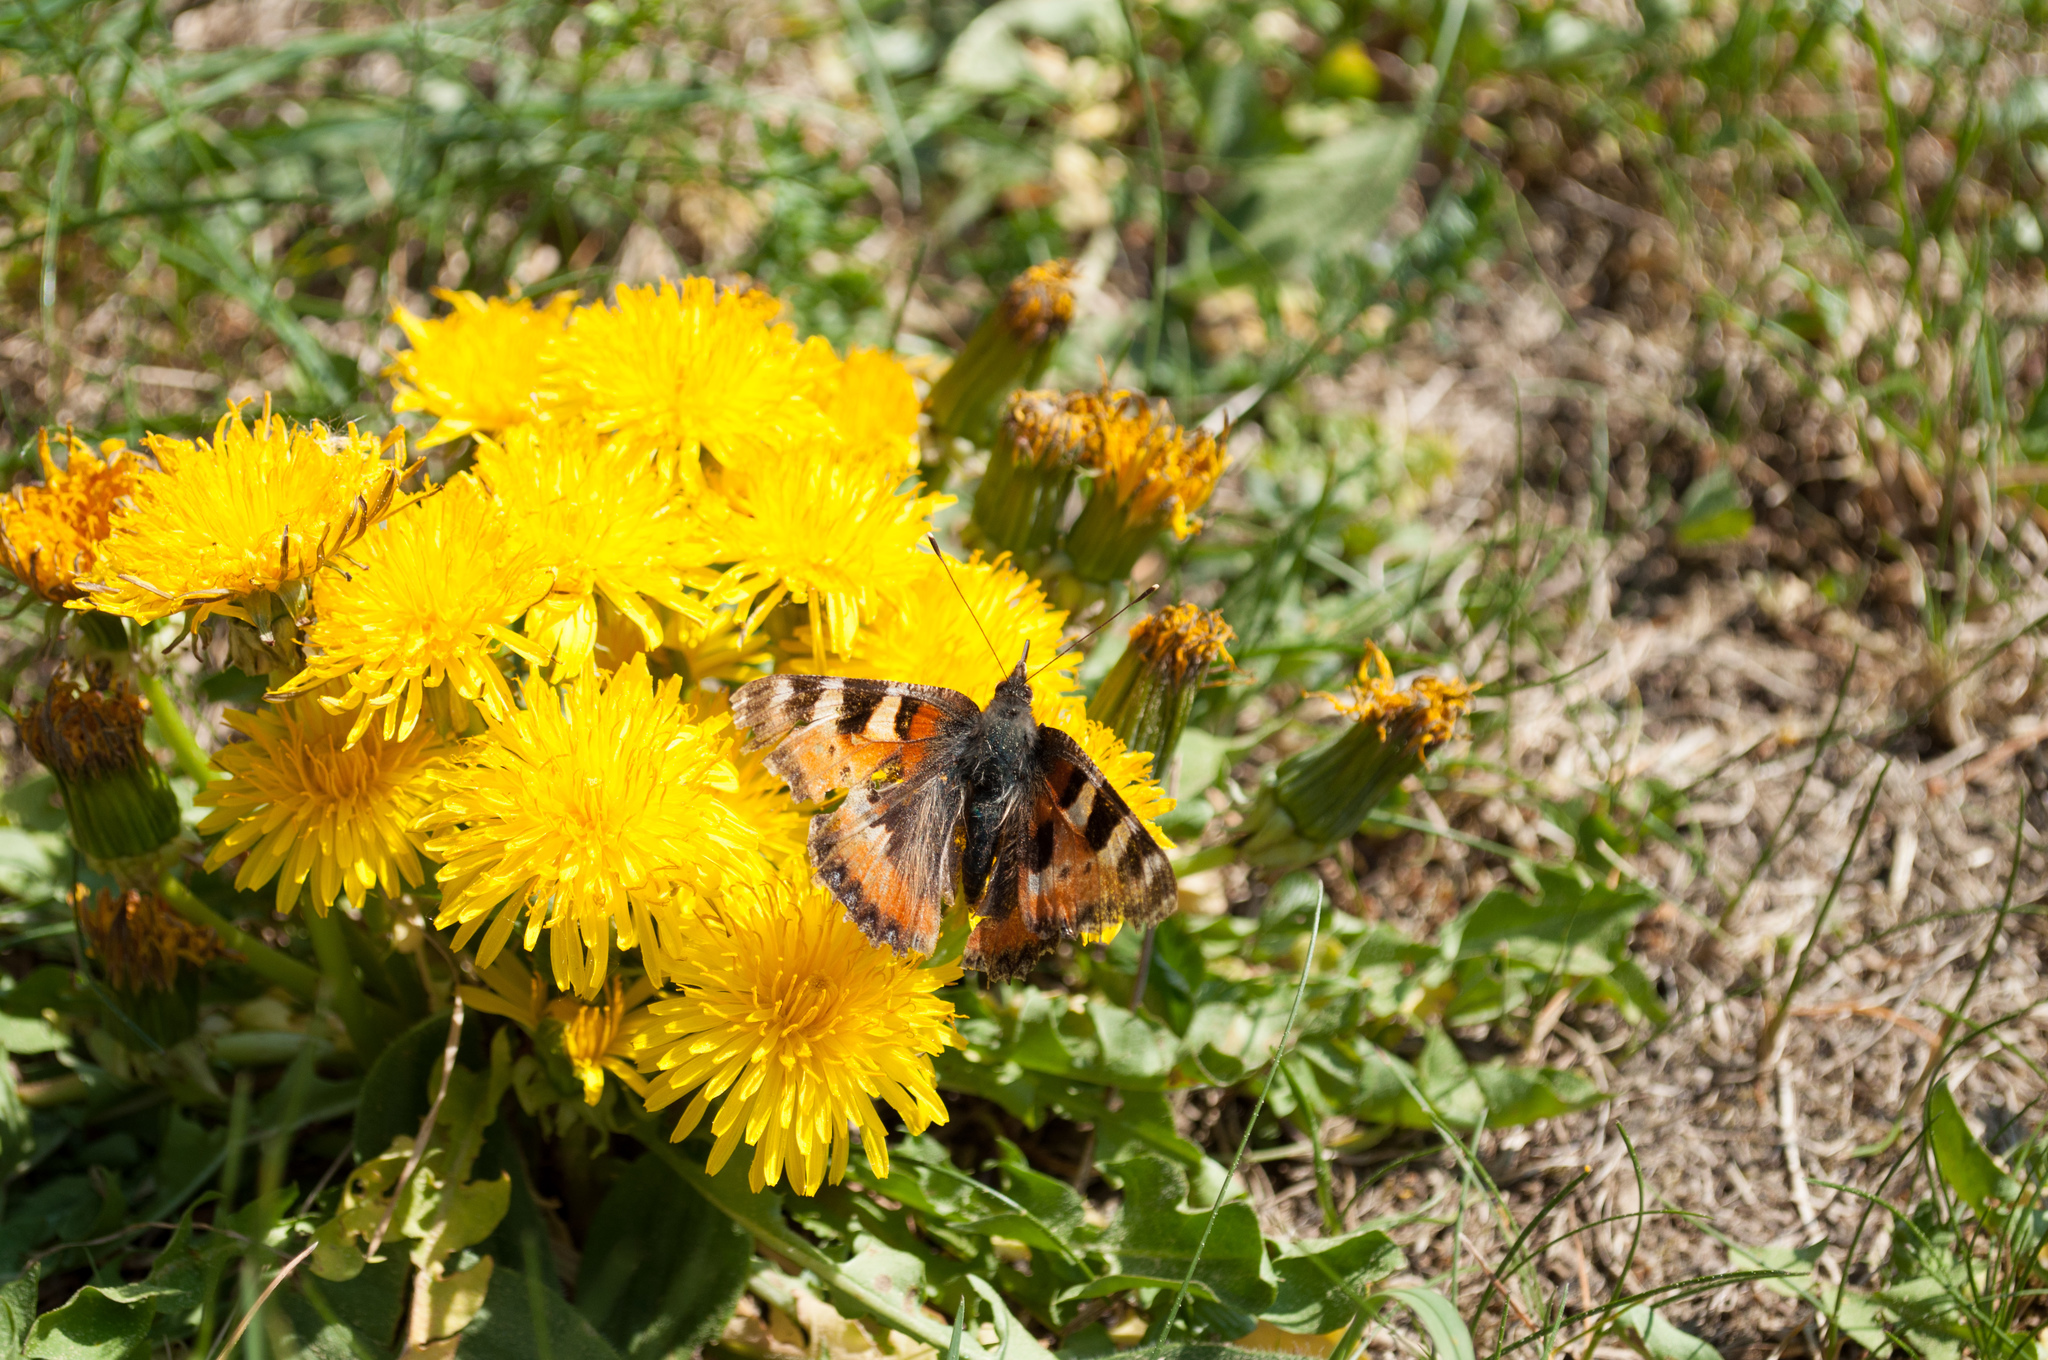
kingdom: Animalia
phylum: Arthropoda
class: Insecta
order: Lepidoptera
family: Nymphalidae
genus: Aglais
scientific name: Aglais urticae
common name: Small tortoiseshell
